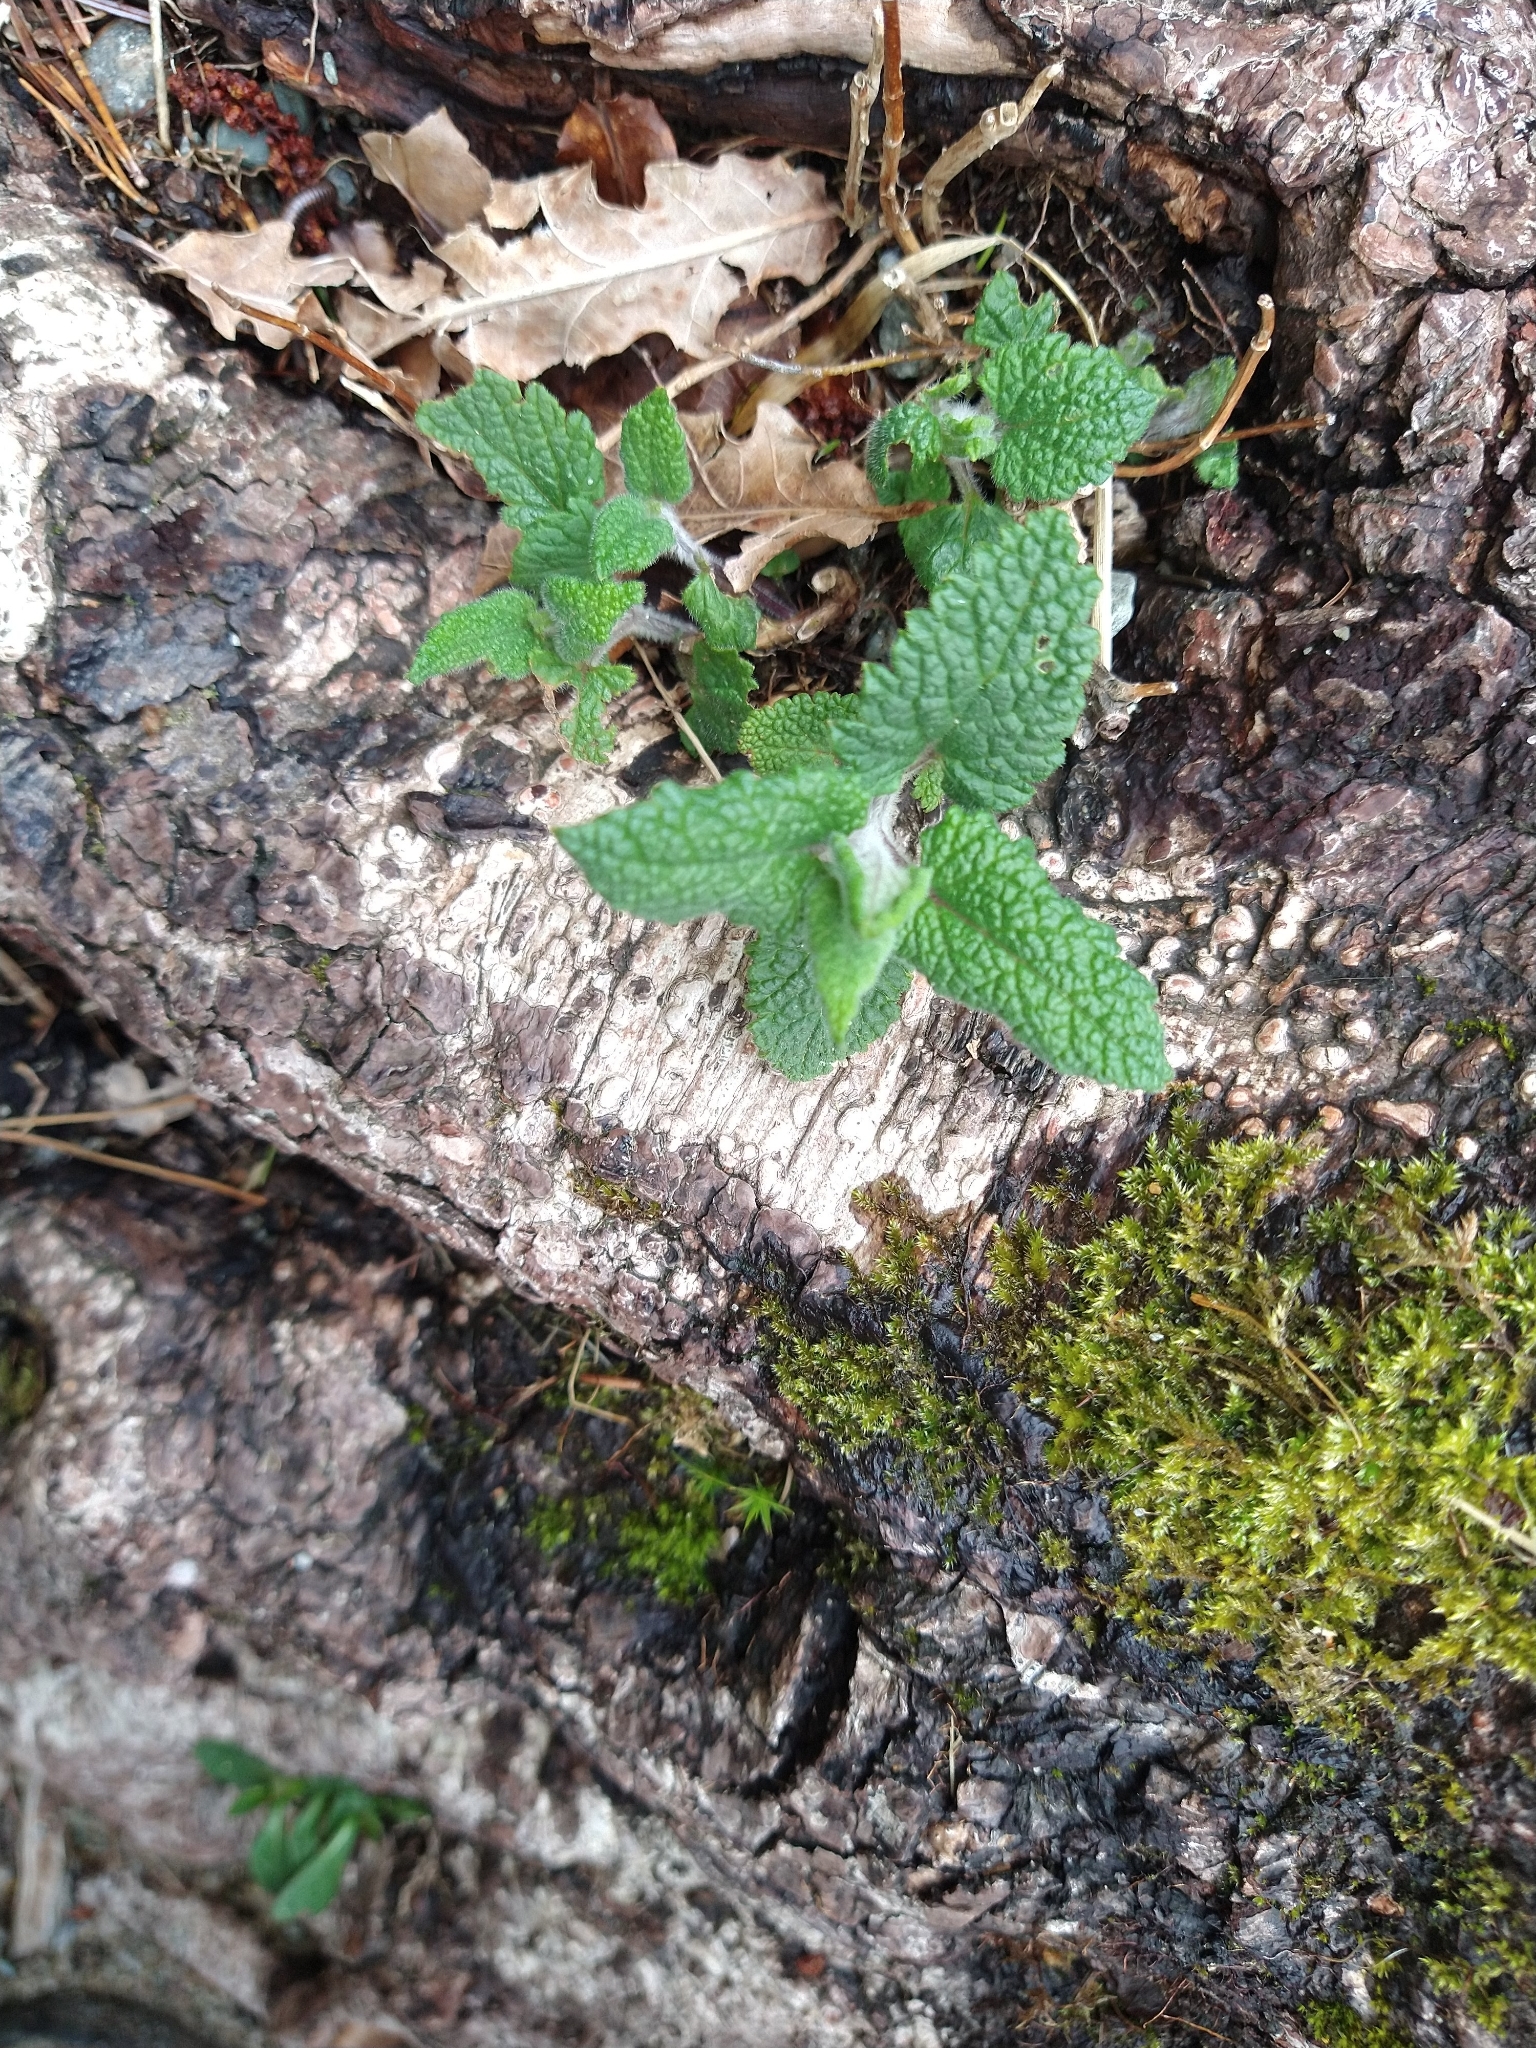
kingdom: Plantae
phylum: Tracheophyta
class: Magnoliopsida
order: Lamiales
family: Lamiaceae
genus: Teucrium
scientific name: Teucrium scorodonia
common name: Woodland germander
